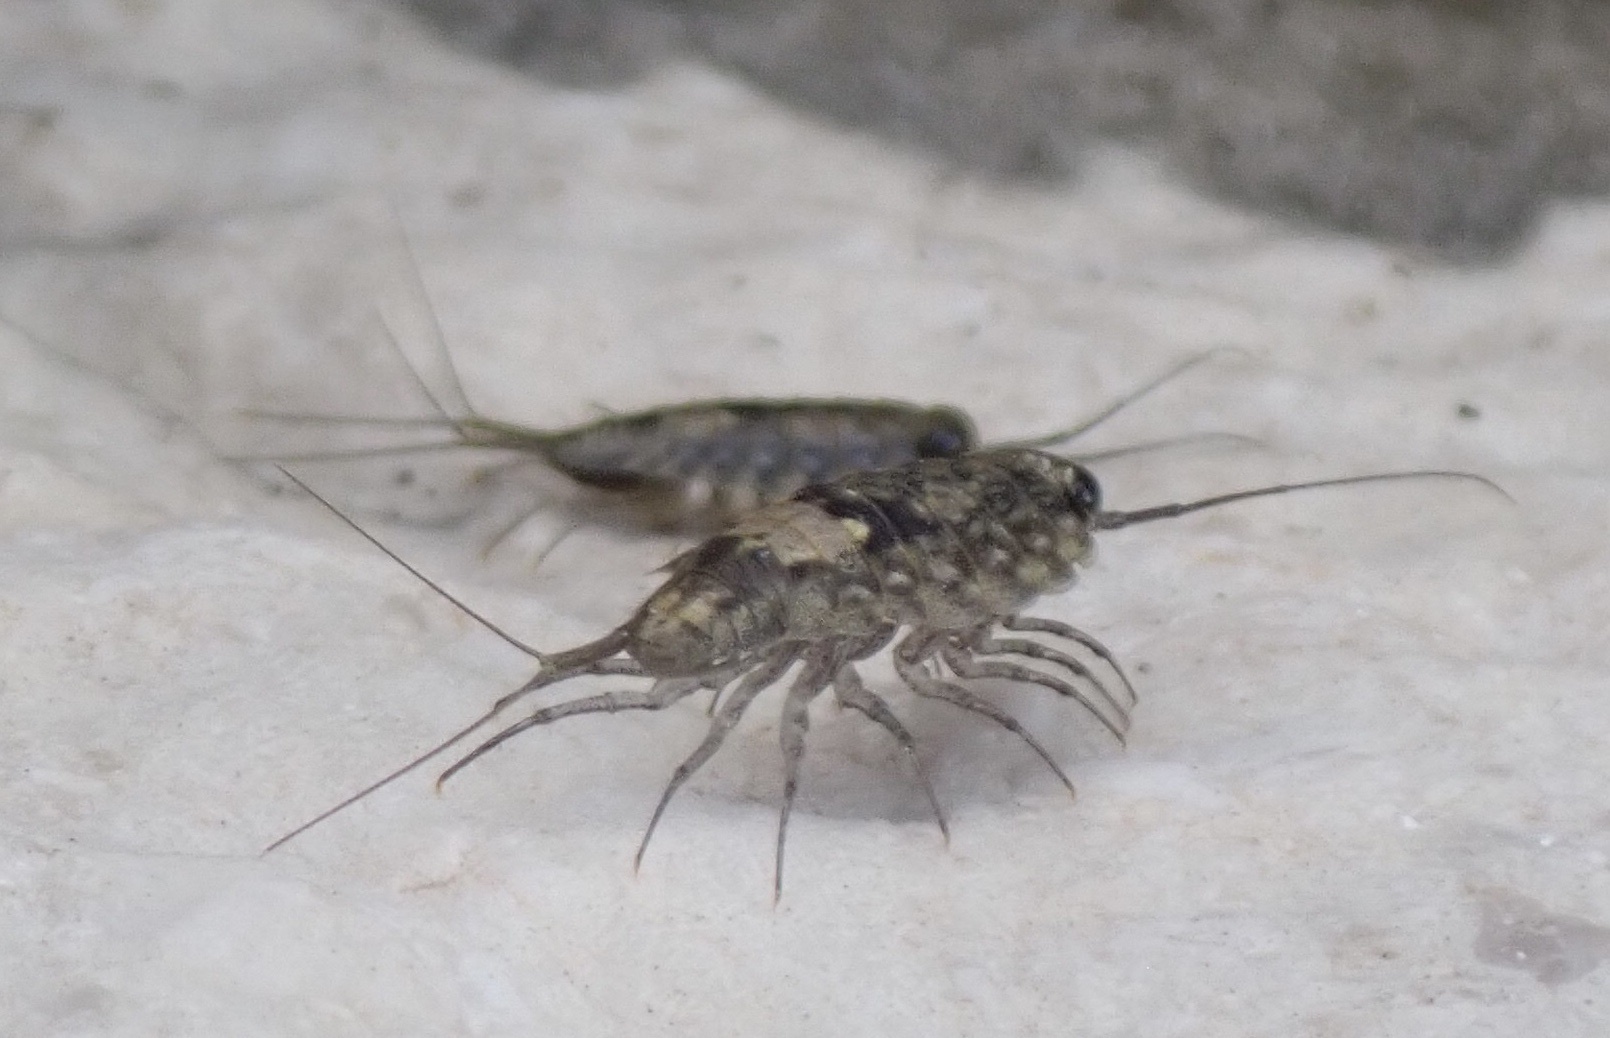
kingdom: Animalia
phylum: Arthropoda
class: Malacostraca
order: Isopoda
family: Ligiidae
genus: Ligia
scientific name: Ligia italica
